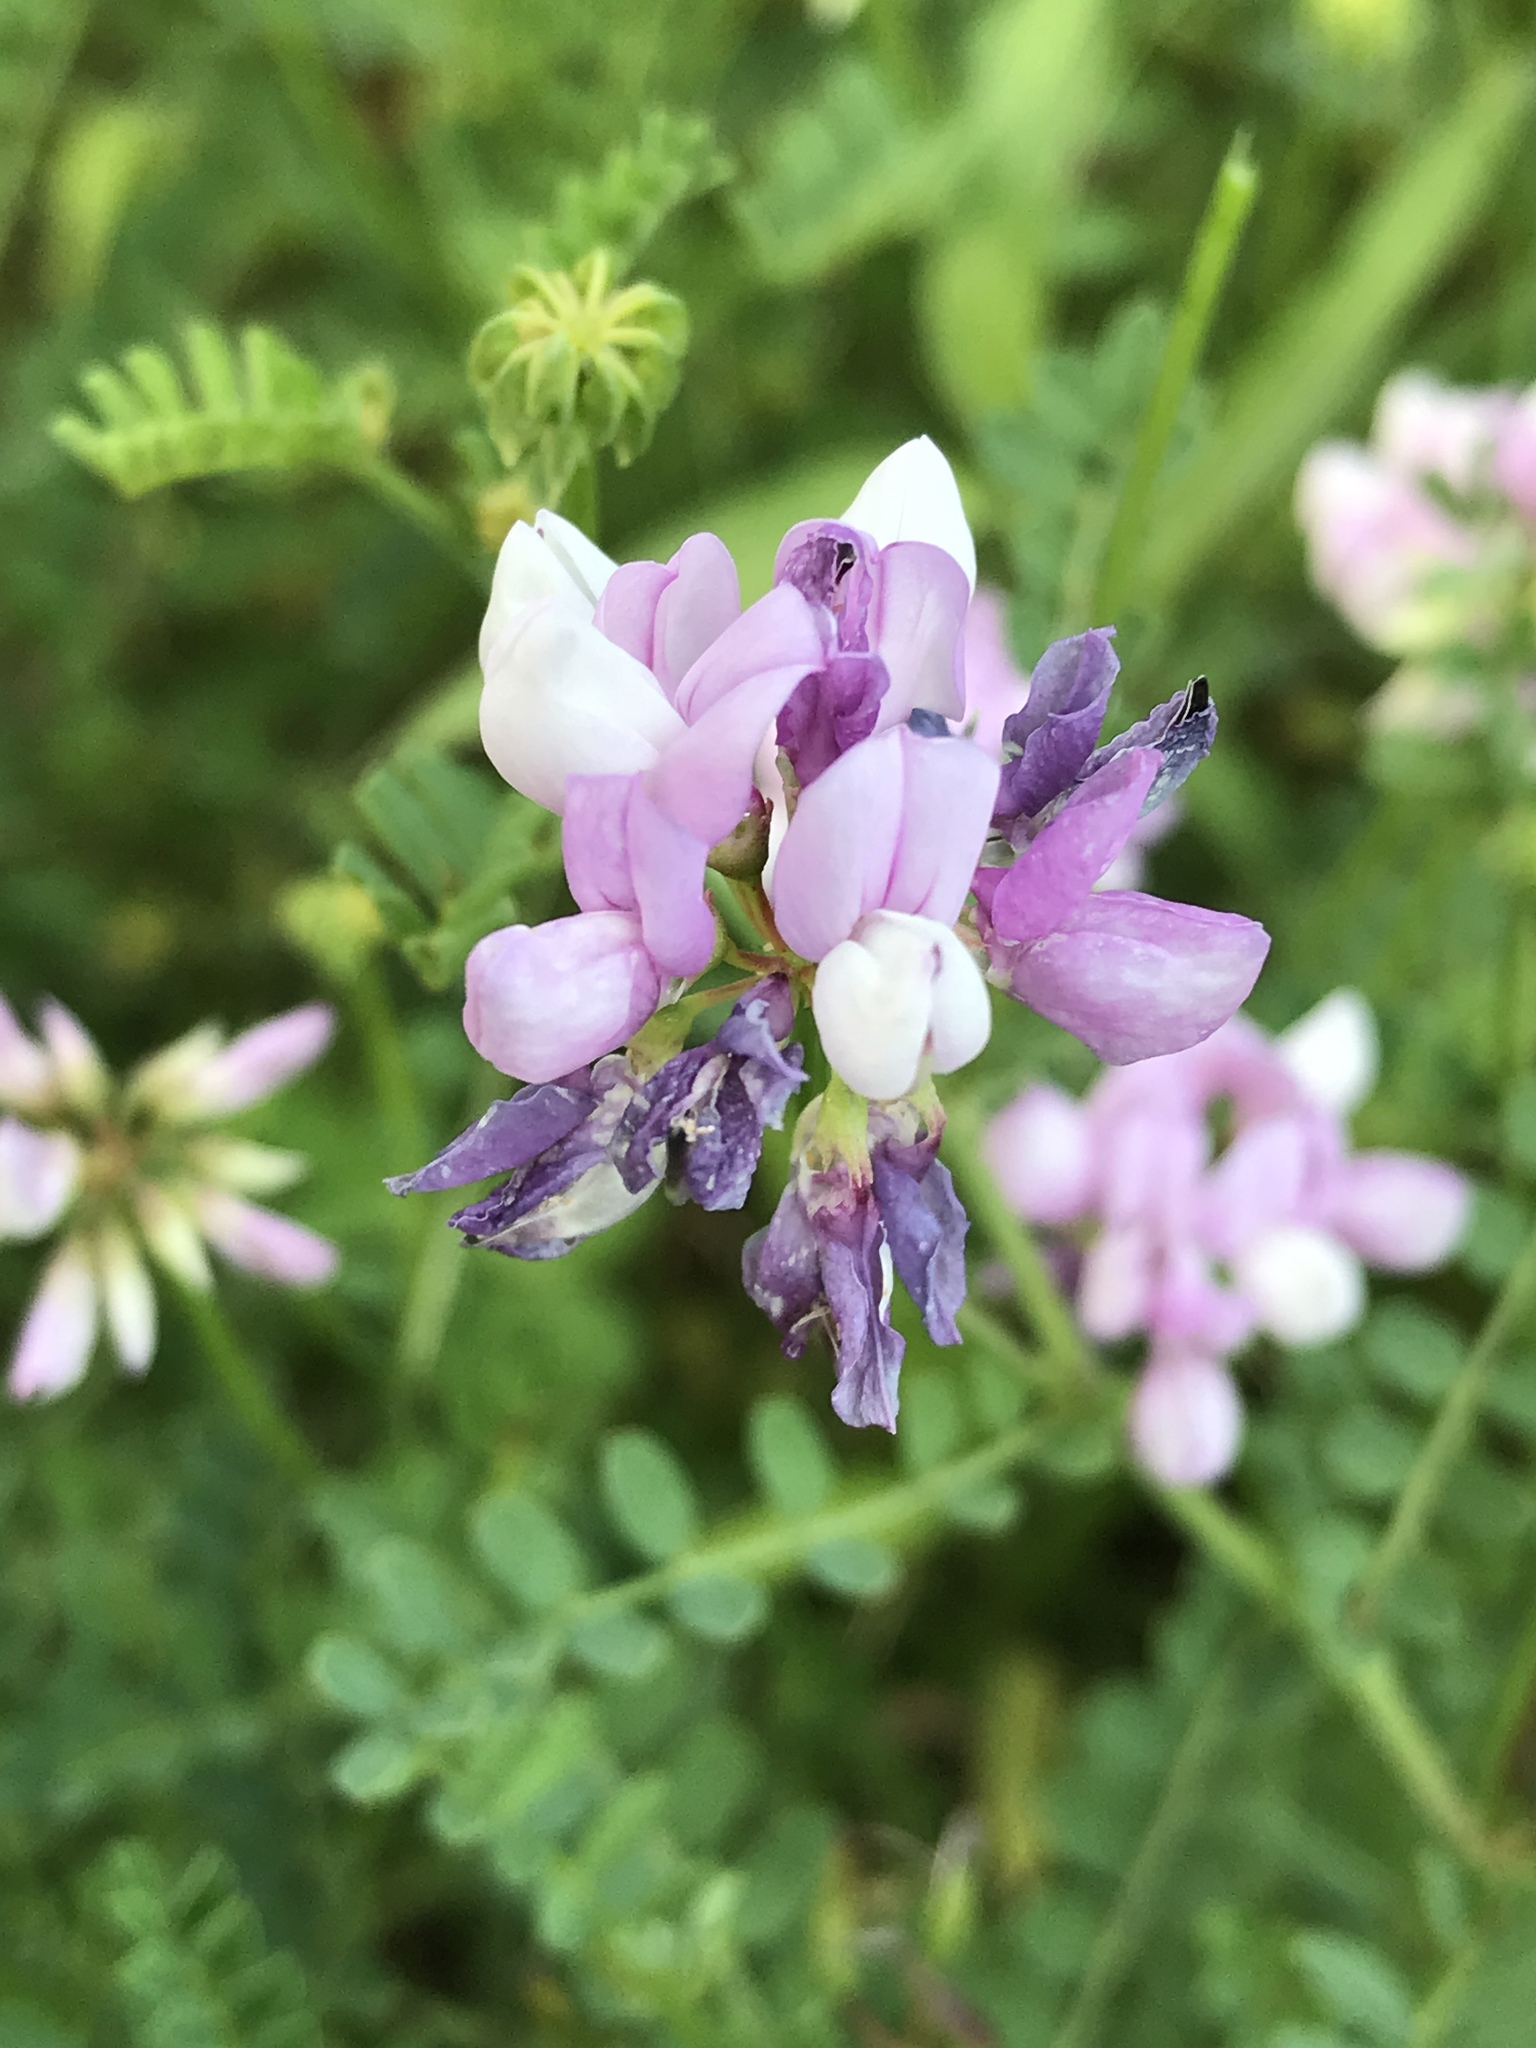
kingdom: Plantae
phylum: Tracheophyta
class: Magnoliopsida
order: Fabales
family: Fabaceae
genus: Coronilla
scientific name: Coronilla varia
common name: Crownvetch
